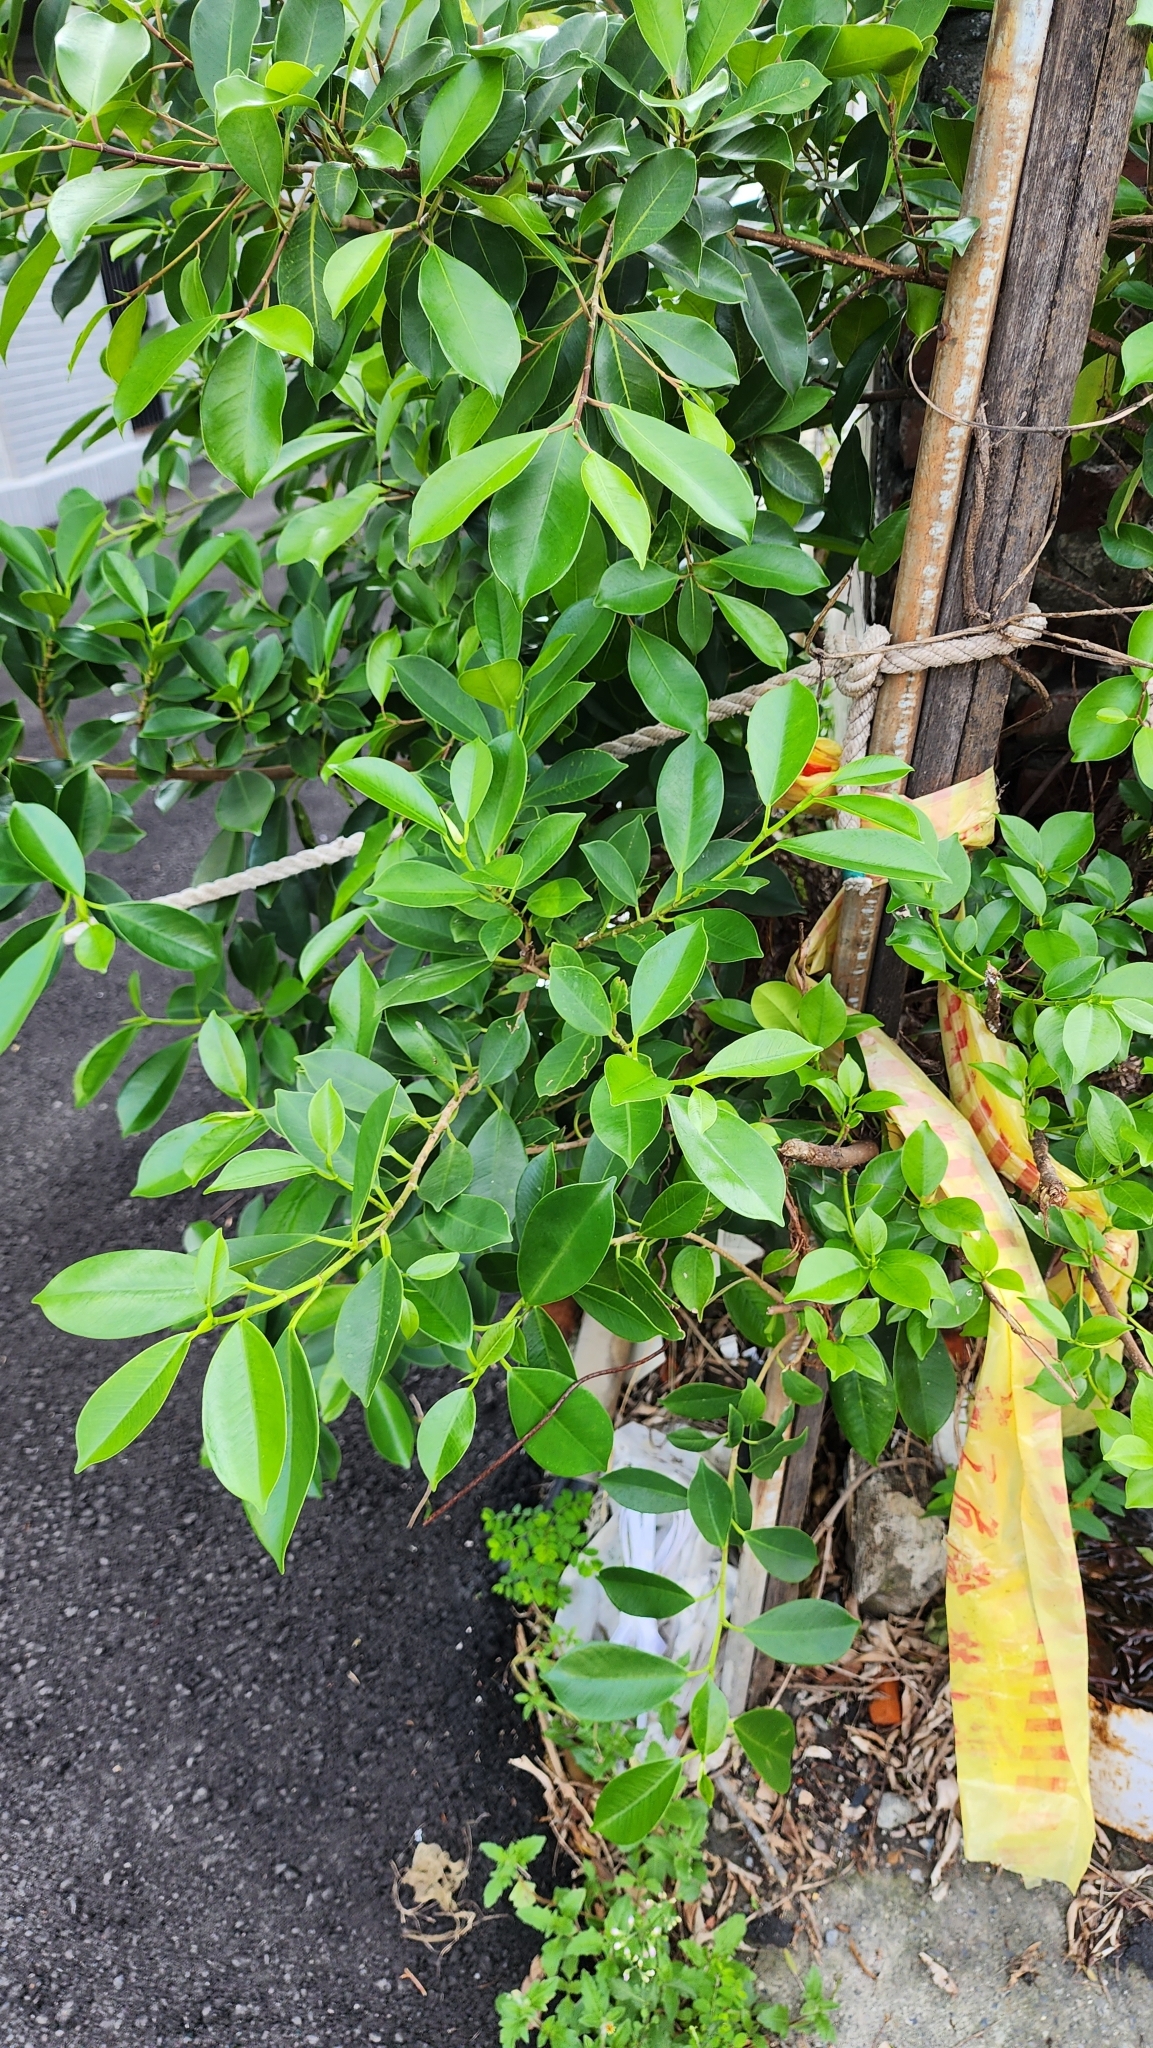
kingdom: Plantae
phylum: Tracheophyta
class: Magnoliopsida
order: Rosales
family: Moraceae
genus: Ficus
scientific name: Ficus microcarpa
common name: Chinese banyan
